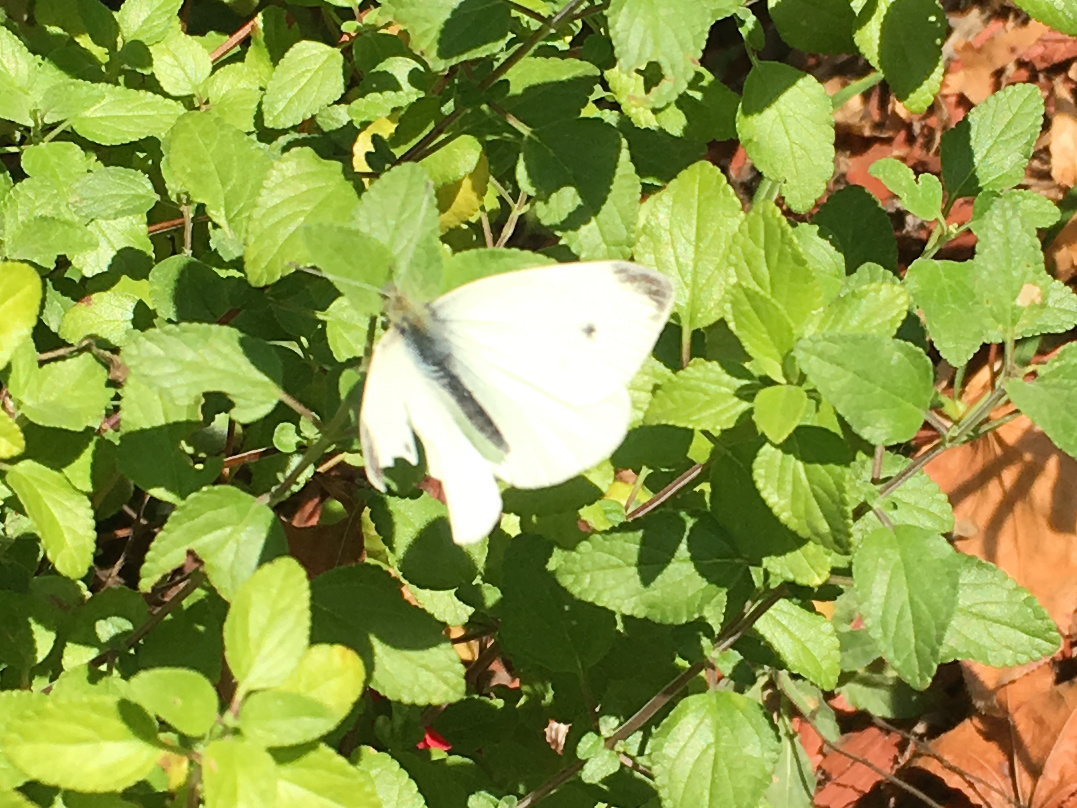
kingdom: Animalia
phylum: Arthropoda
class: Insecta
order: Lepidoptera
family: Pieridae
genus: Pieris
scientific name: Pieris rapae
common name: Small white
